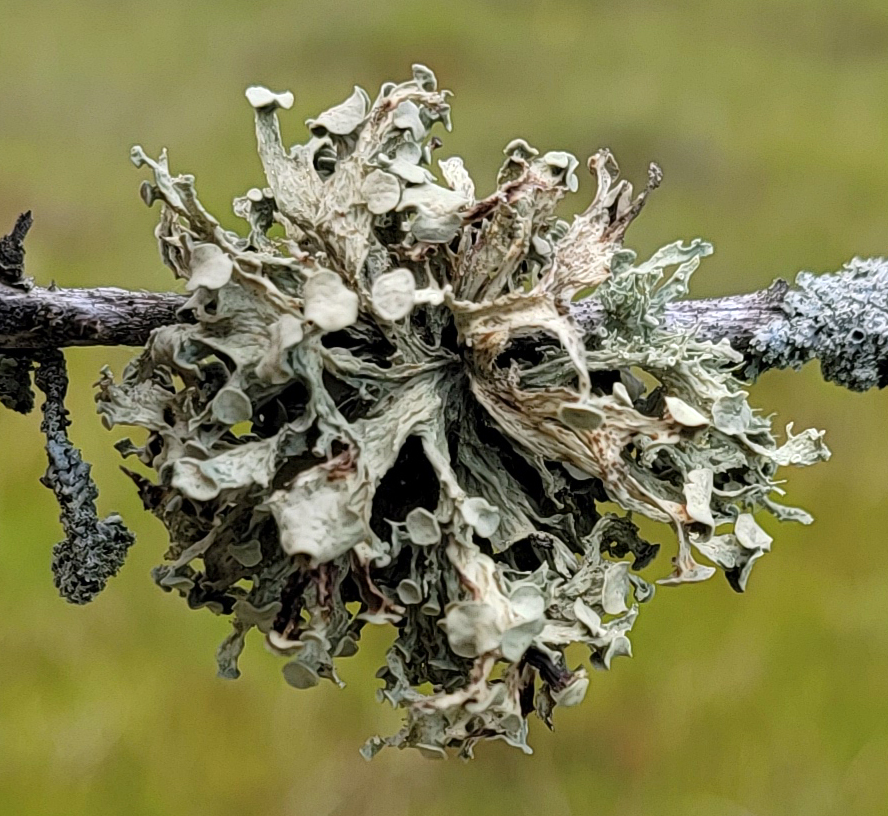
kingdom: Fungi
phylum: Ascomycota
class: Lecanoromycetes
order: Lecanorales
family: Ramalinaceae
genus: Ramalina
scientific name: Ramalina americana
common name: Sinewed bush lichen
